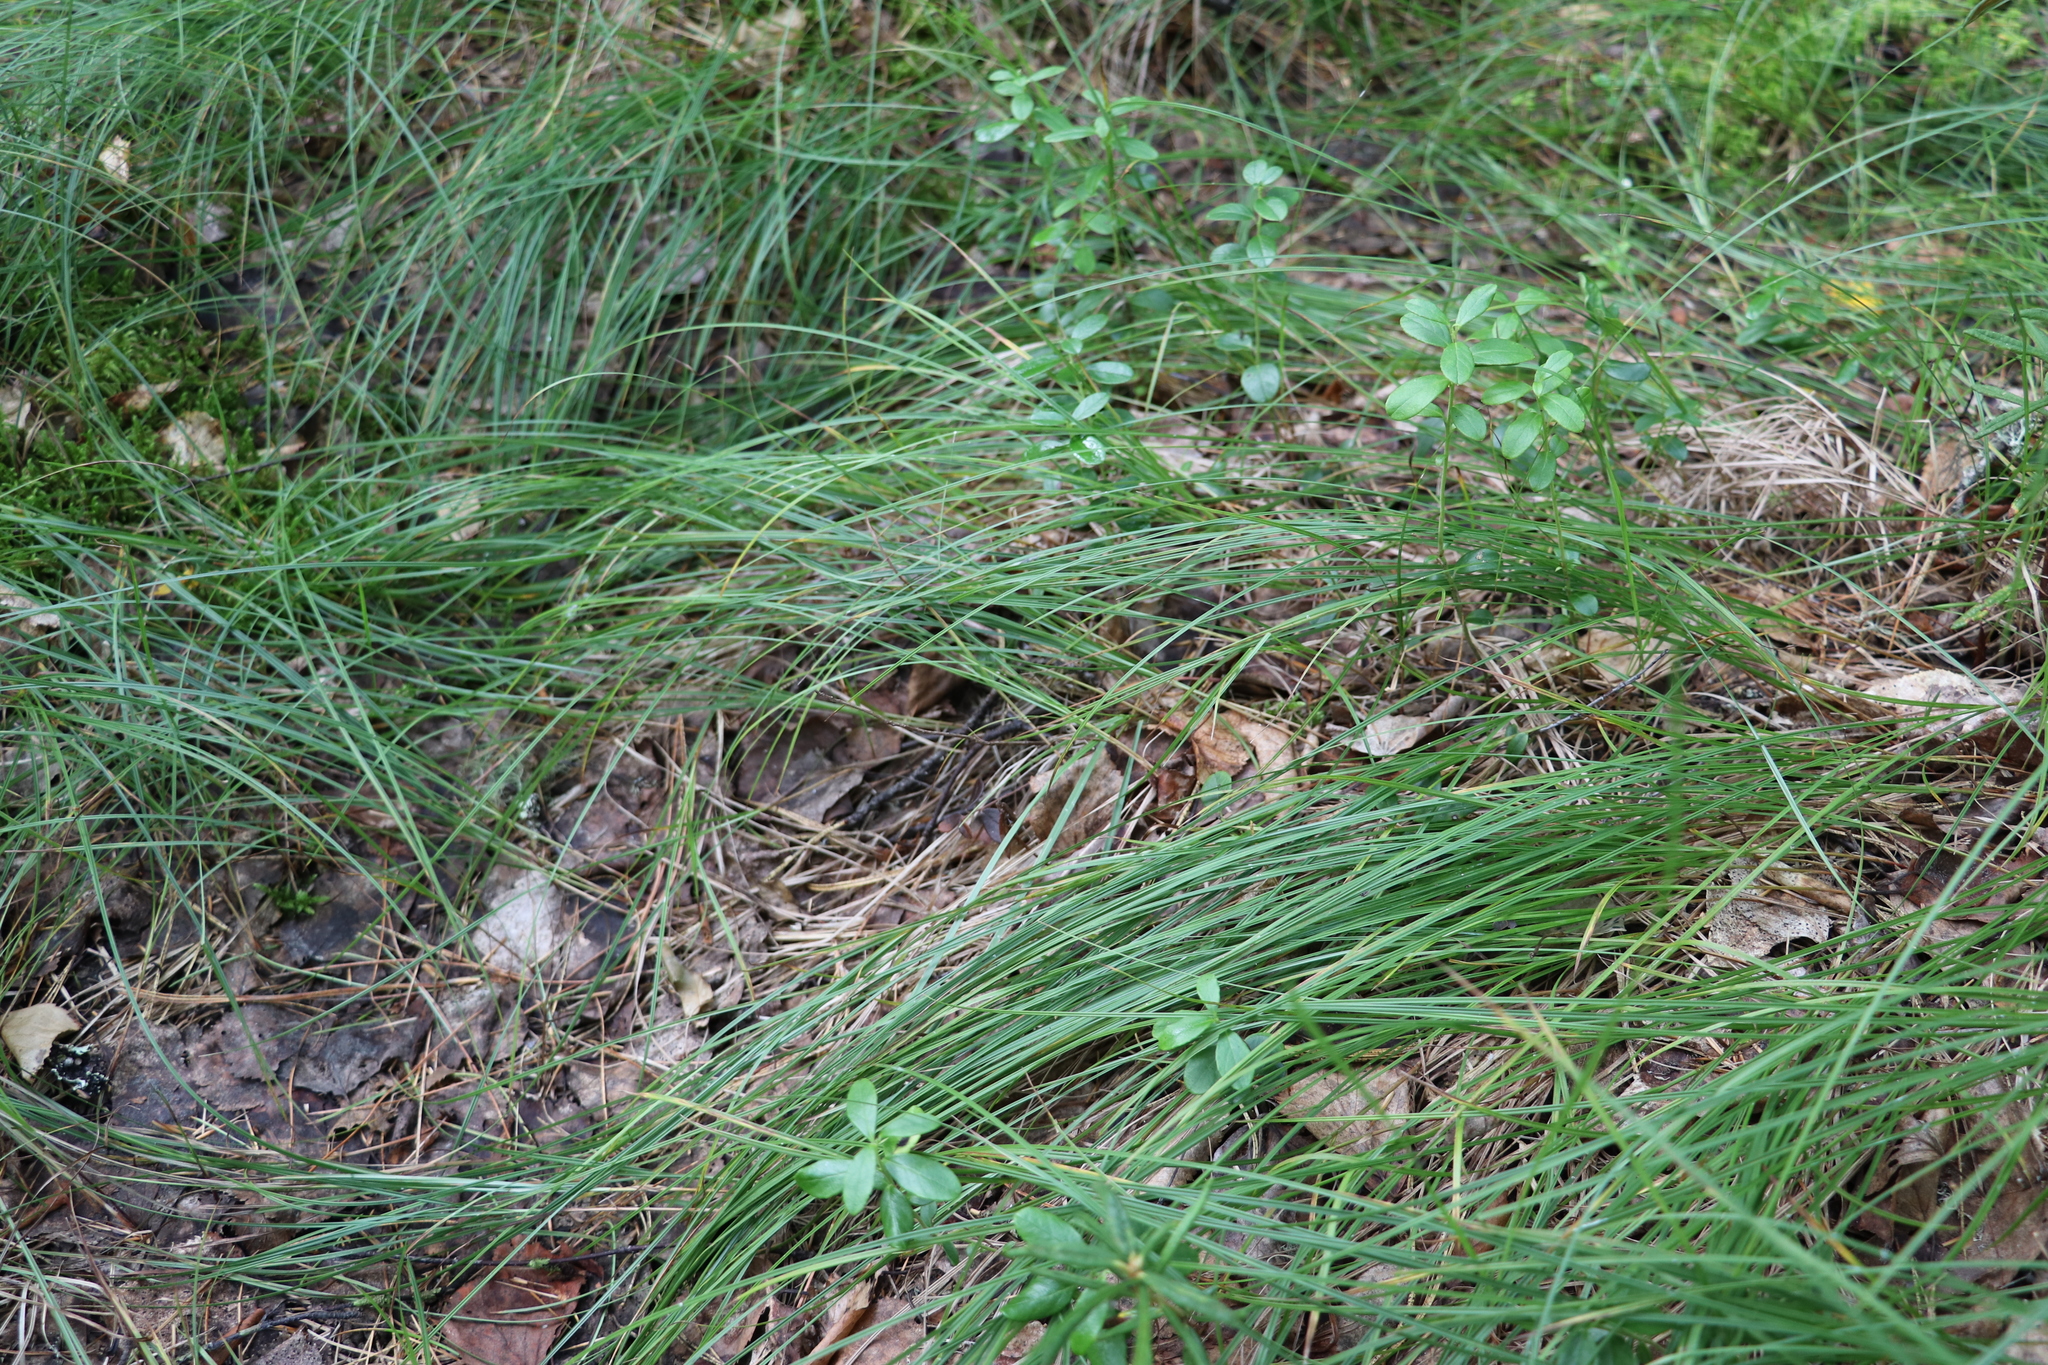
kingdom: Plantae
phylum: Tracheophyta
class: Liliopsida
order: Poales
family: Cyperaceae
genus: Carex
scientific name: Carex globularis
